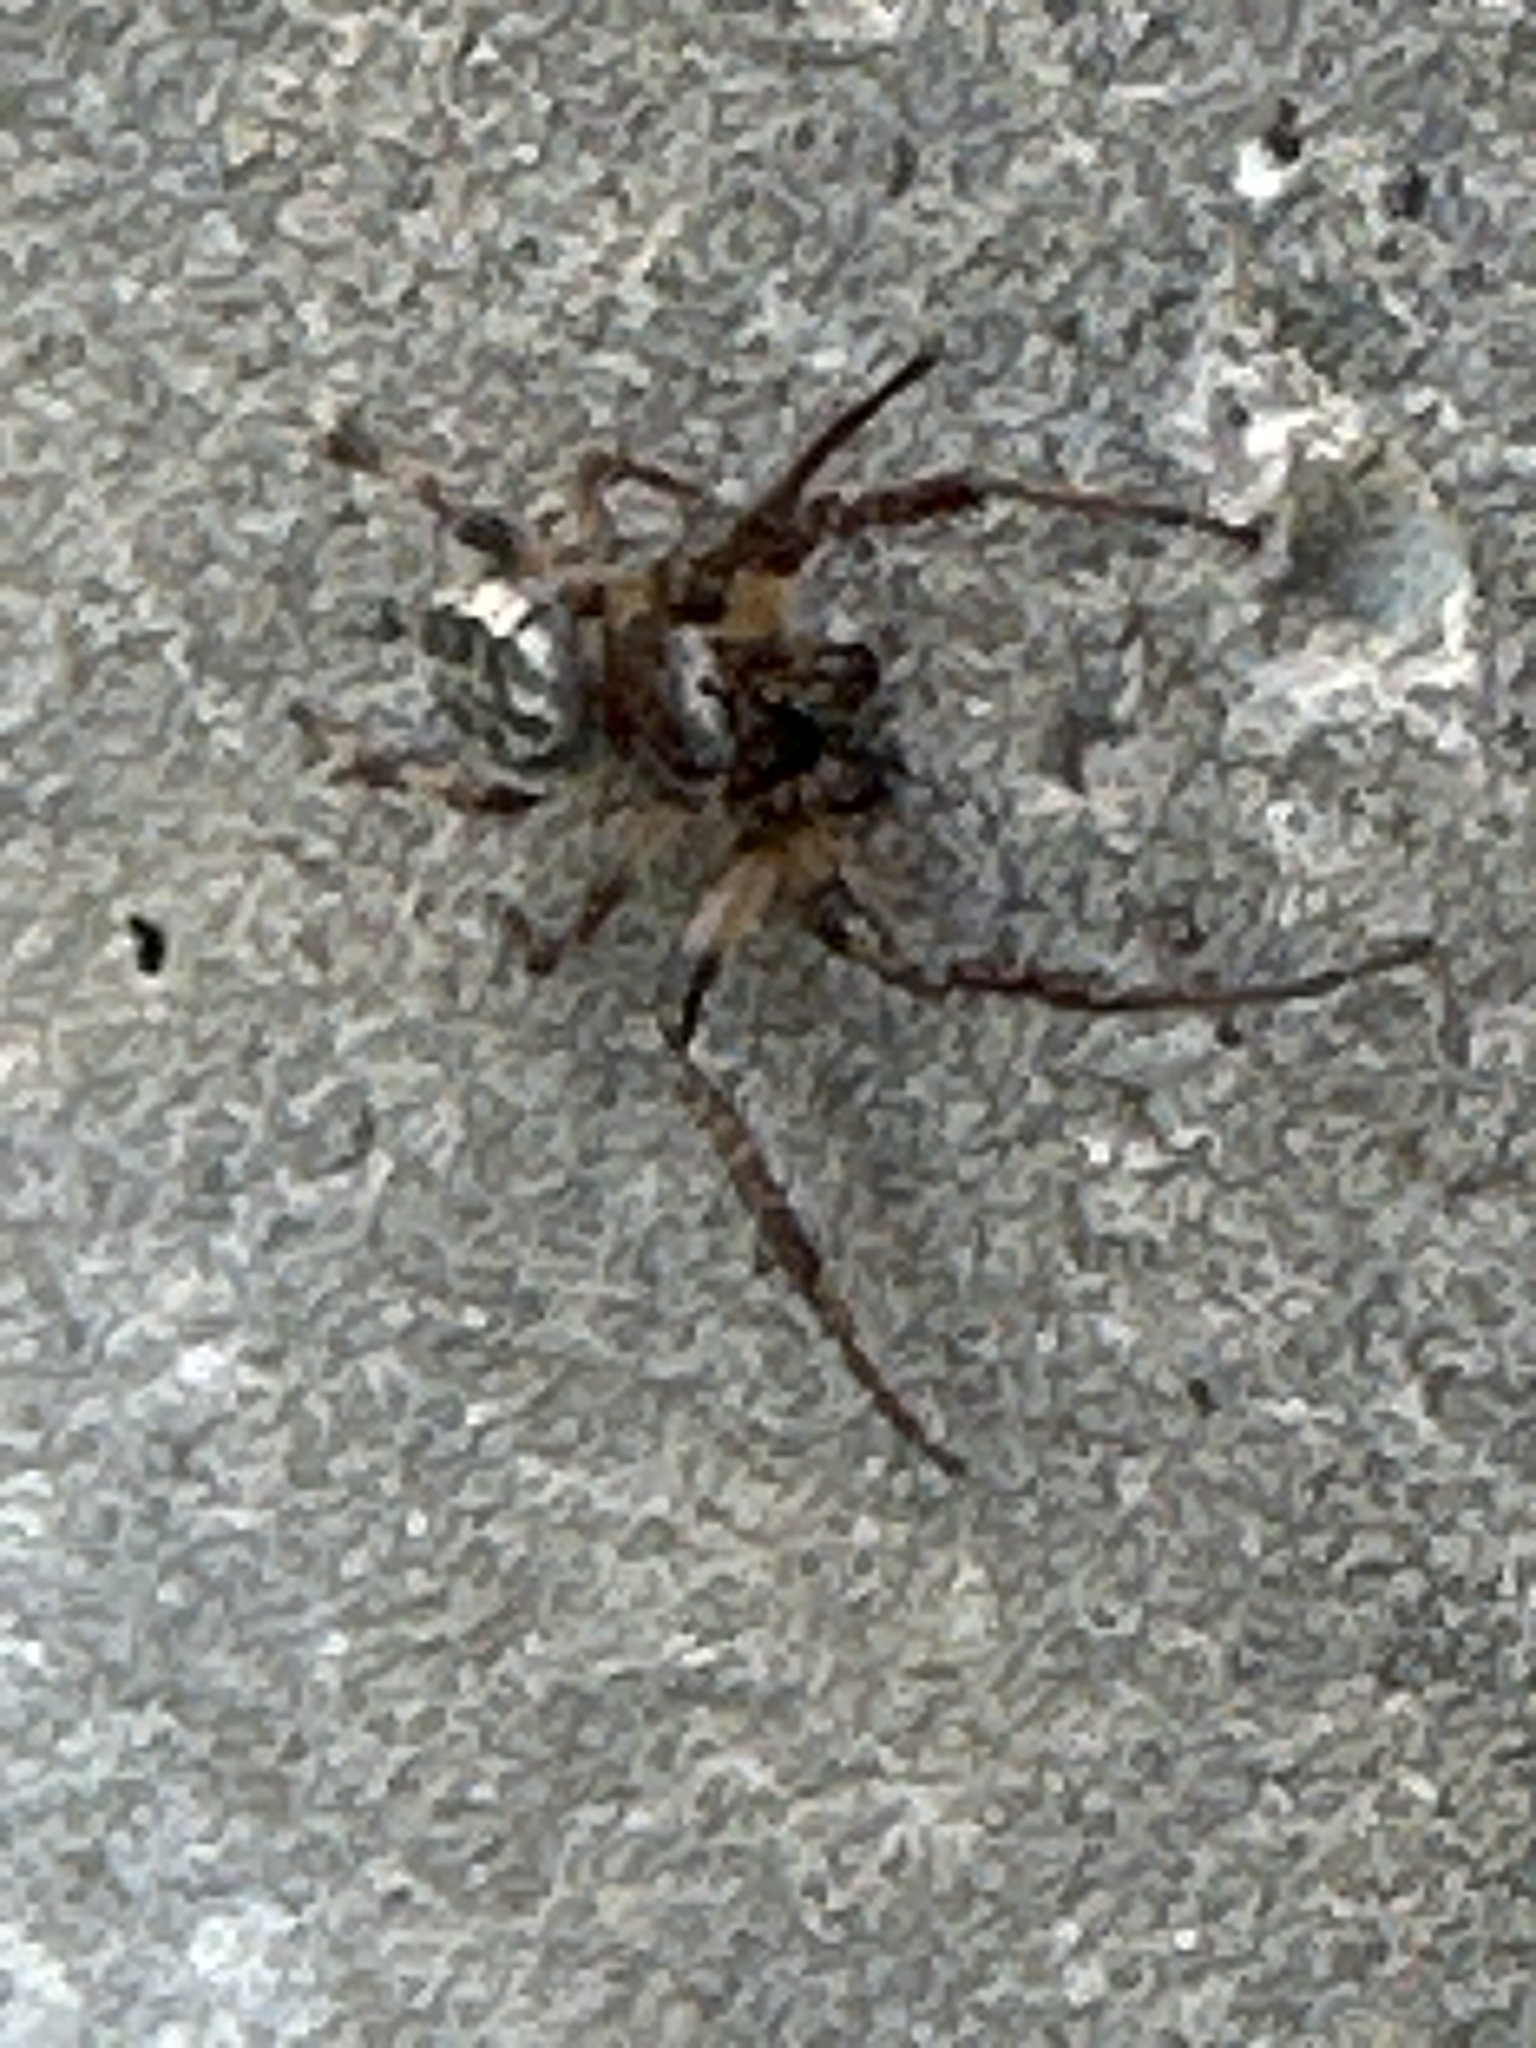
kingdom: Animalia
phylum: Arthropoda
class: Arachnida
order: Araneae
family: Araneidae
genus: Larinioides
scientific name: Larinioides cornutus
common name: Furrow orbweaver
